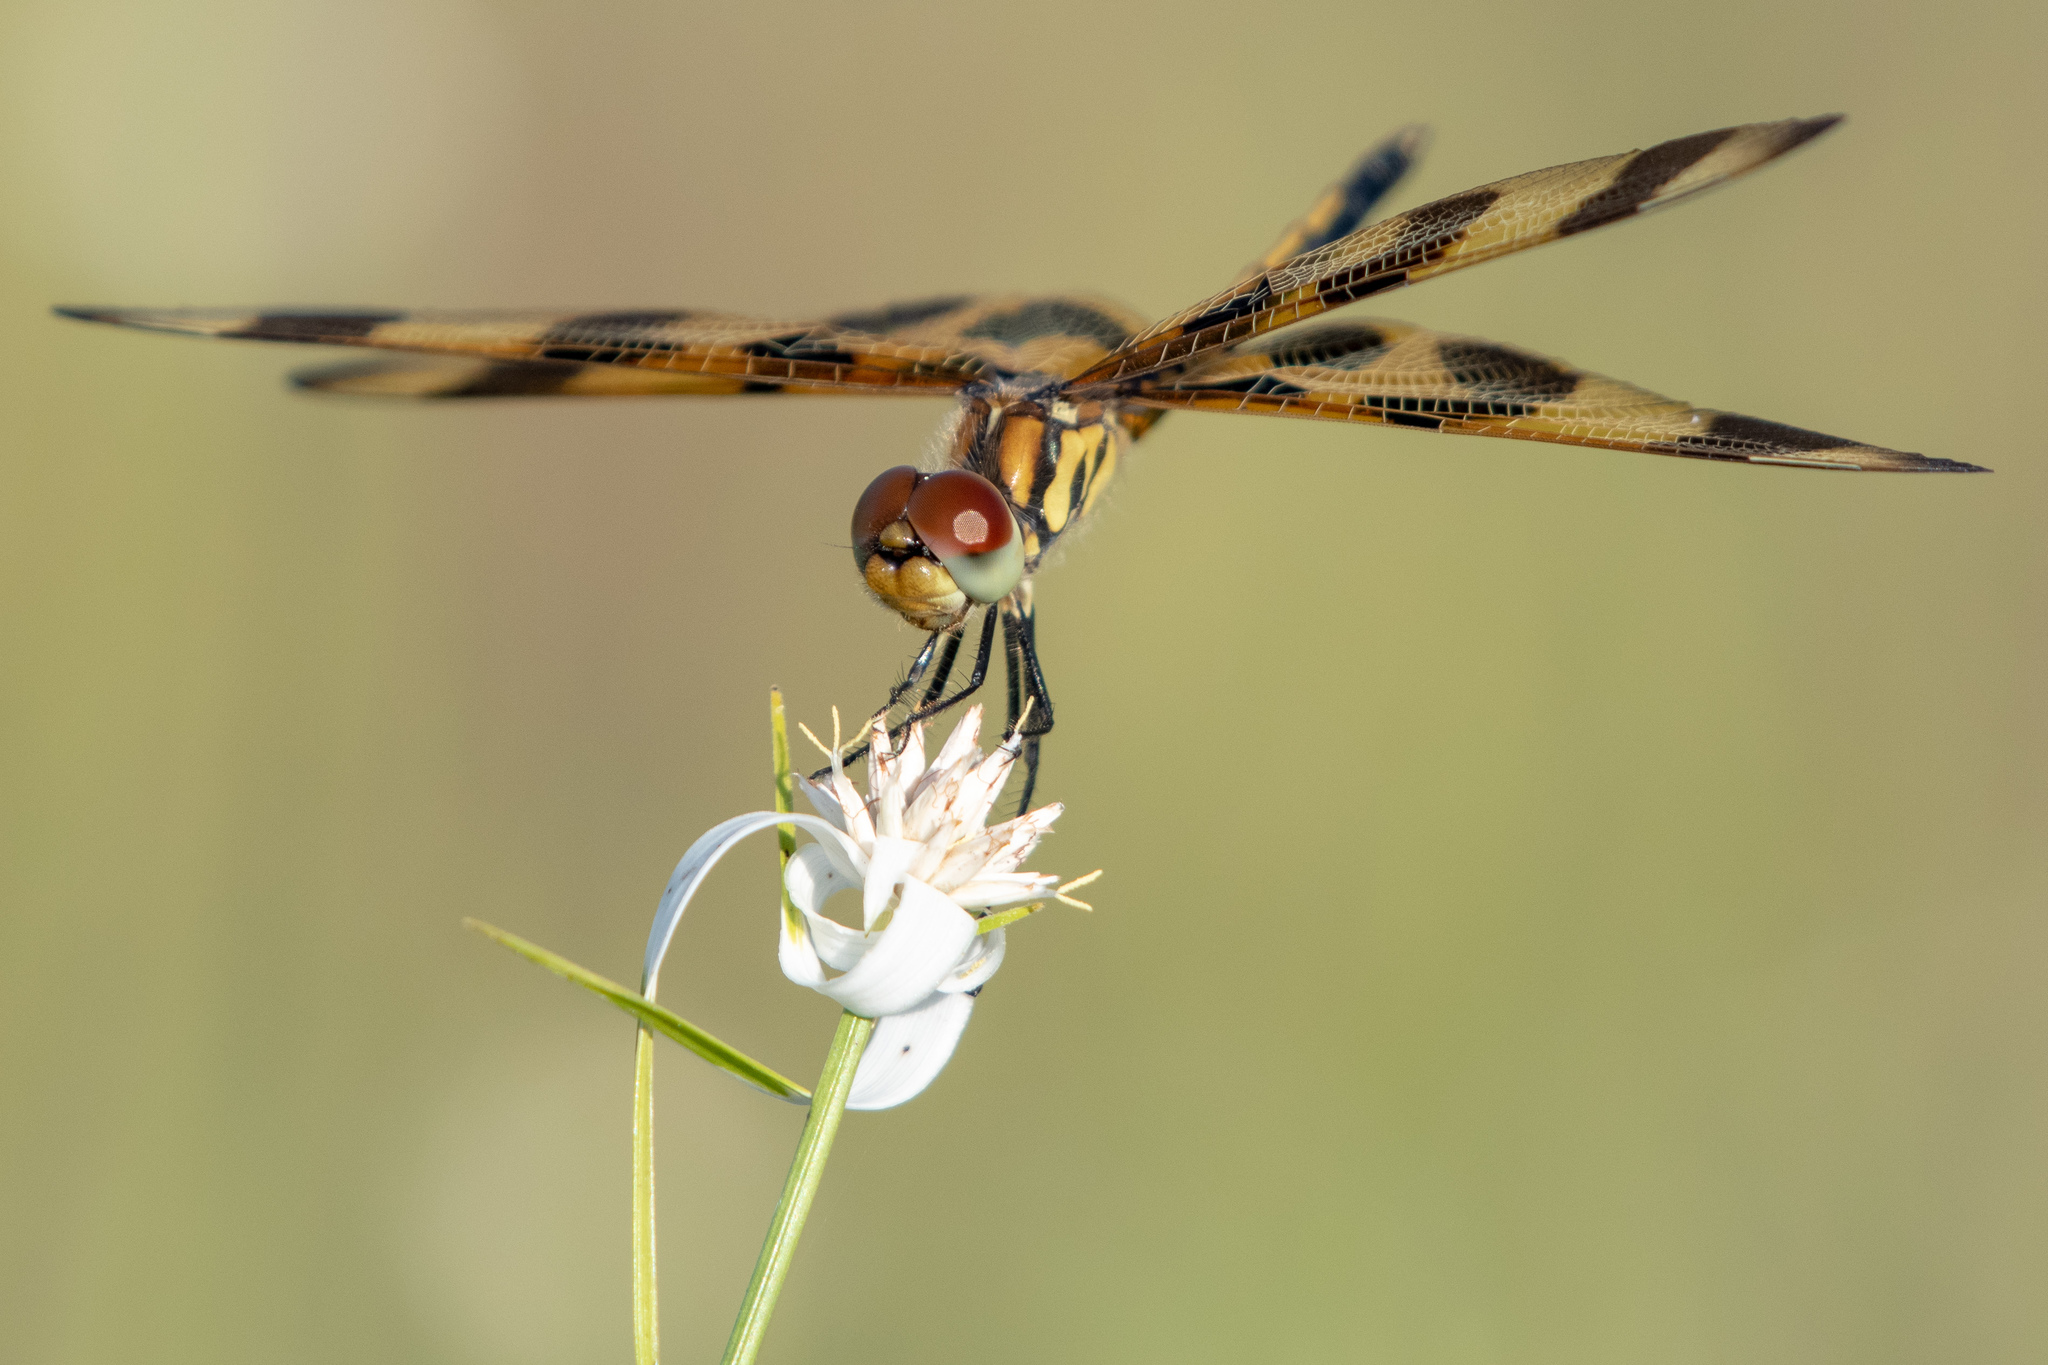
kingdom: Animalia
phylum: Arthropoda
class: Insecta
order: Odonata
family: Libellulidae
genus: Celithemis
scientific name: Celithemis eponina
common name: Halloween pennant
